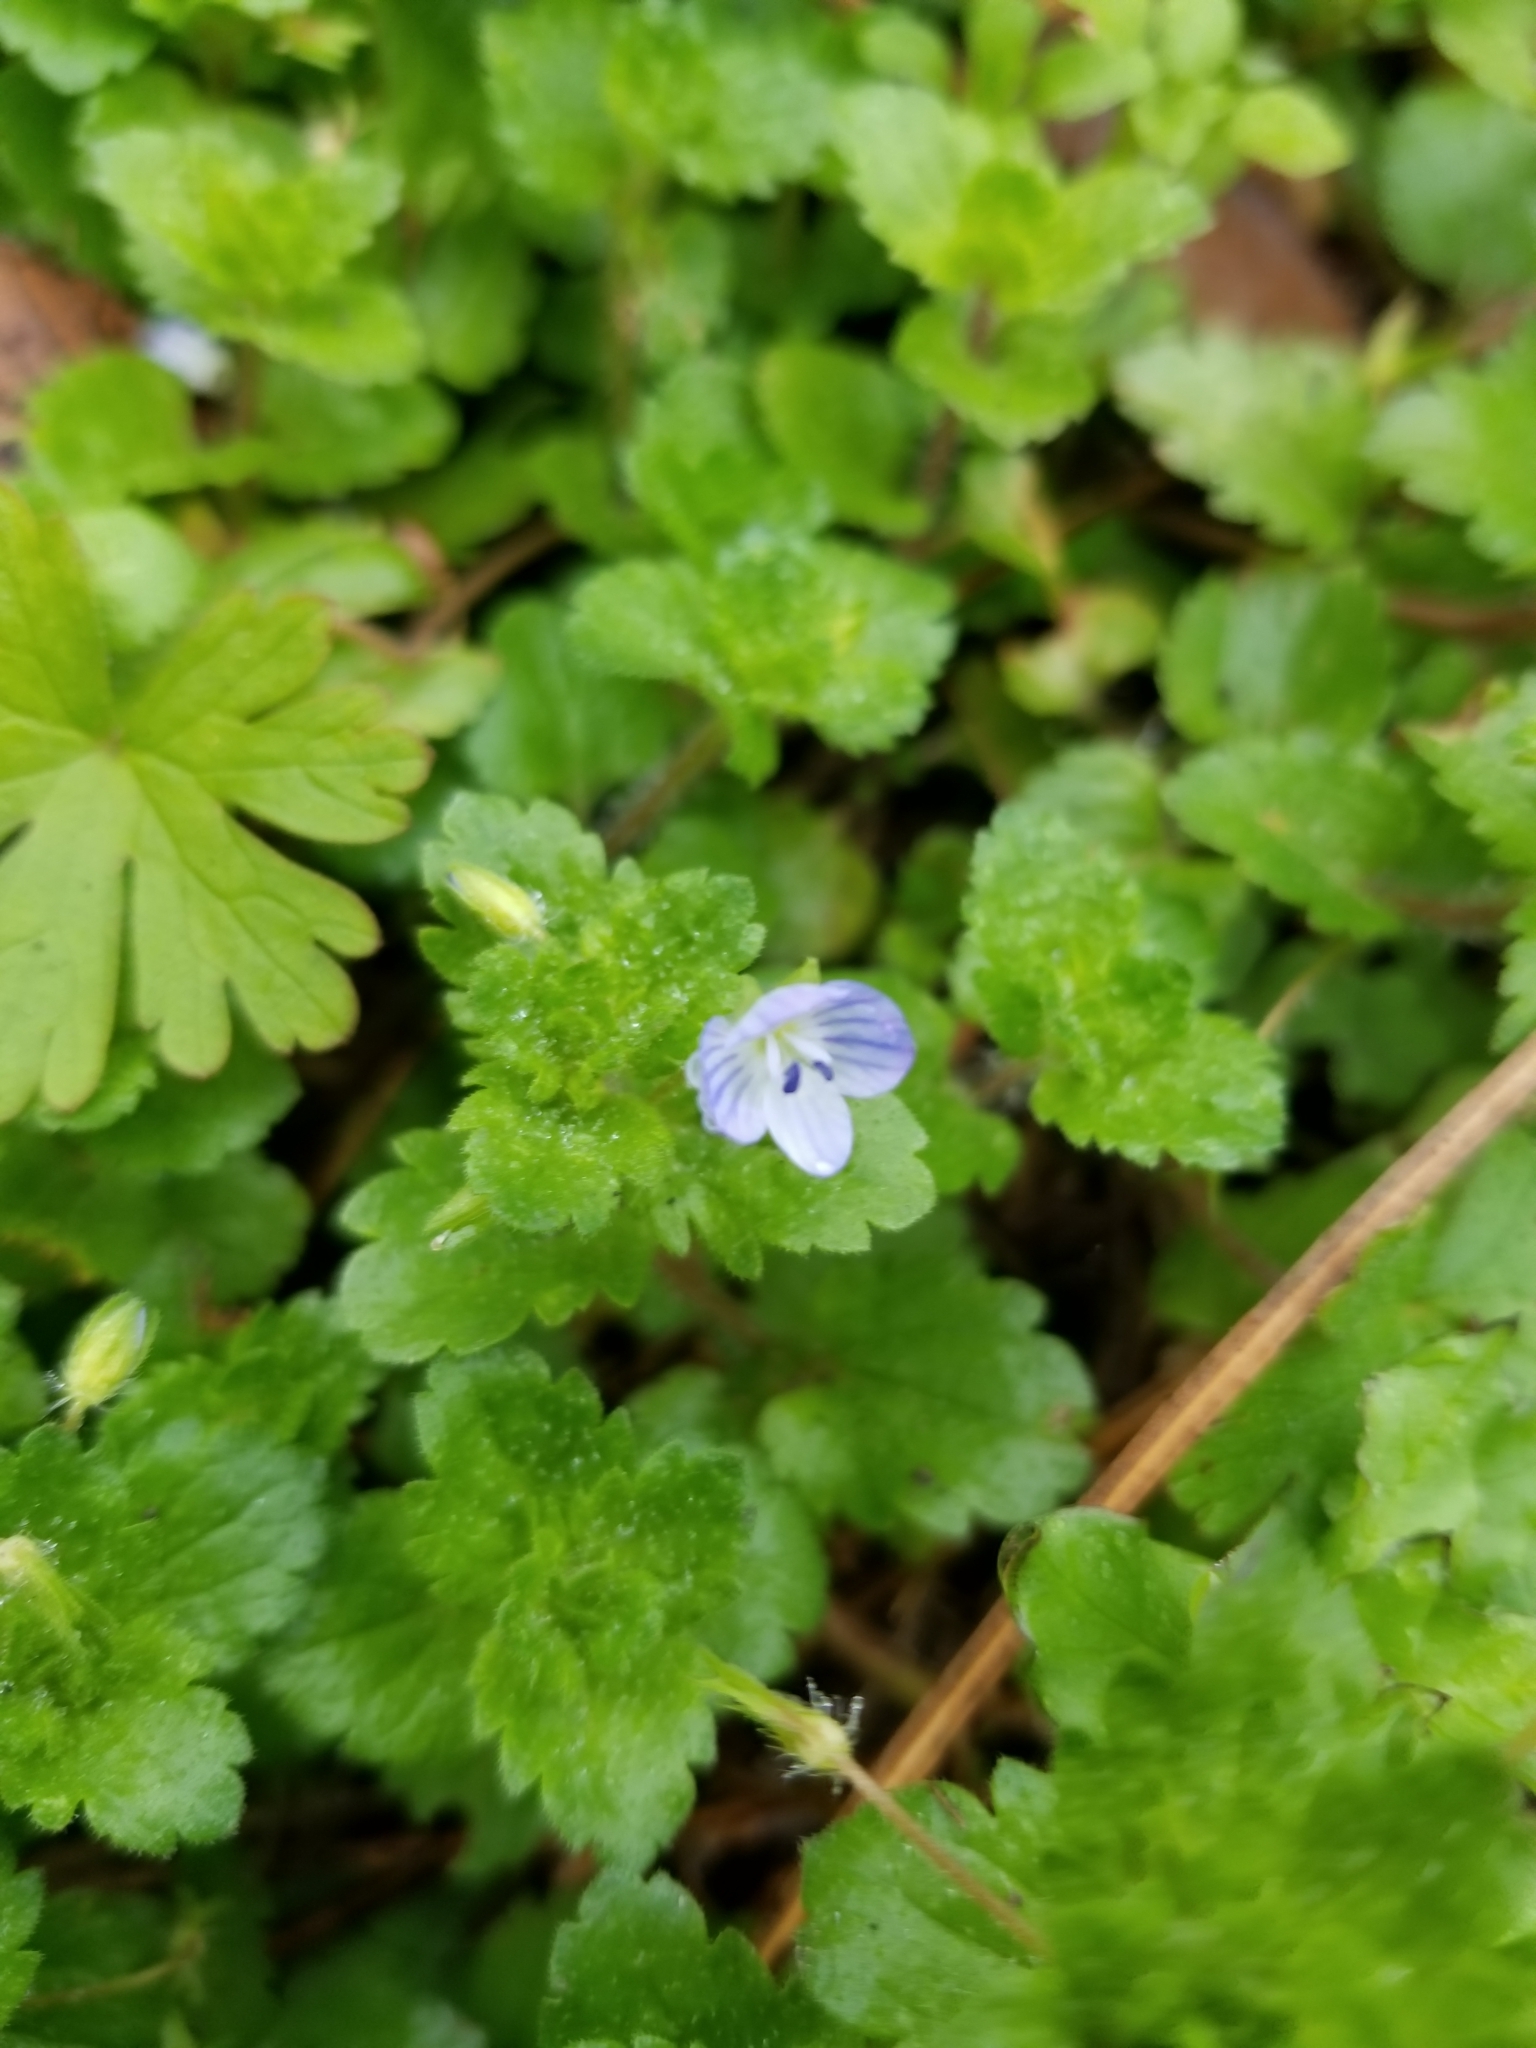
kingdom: Plantae
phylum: Tracheophyta
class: Magnoliopsida
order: Lamiales
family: Plantaginaceae
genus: Veronica
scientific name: Veronica persica
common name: Common field-speedwell
